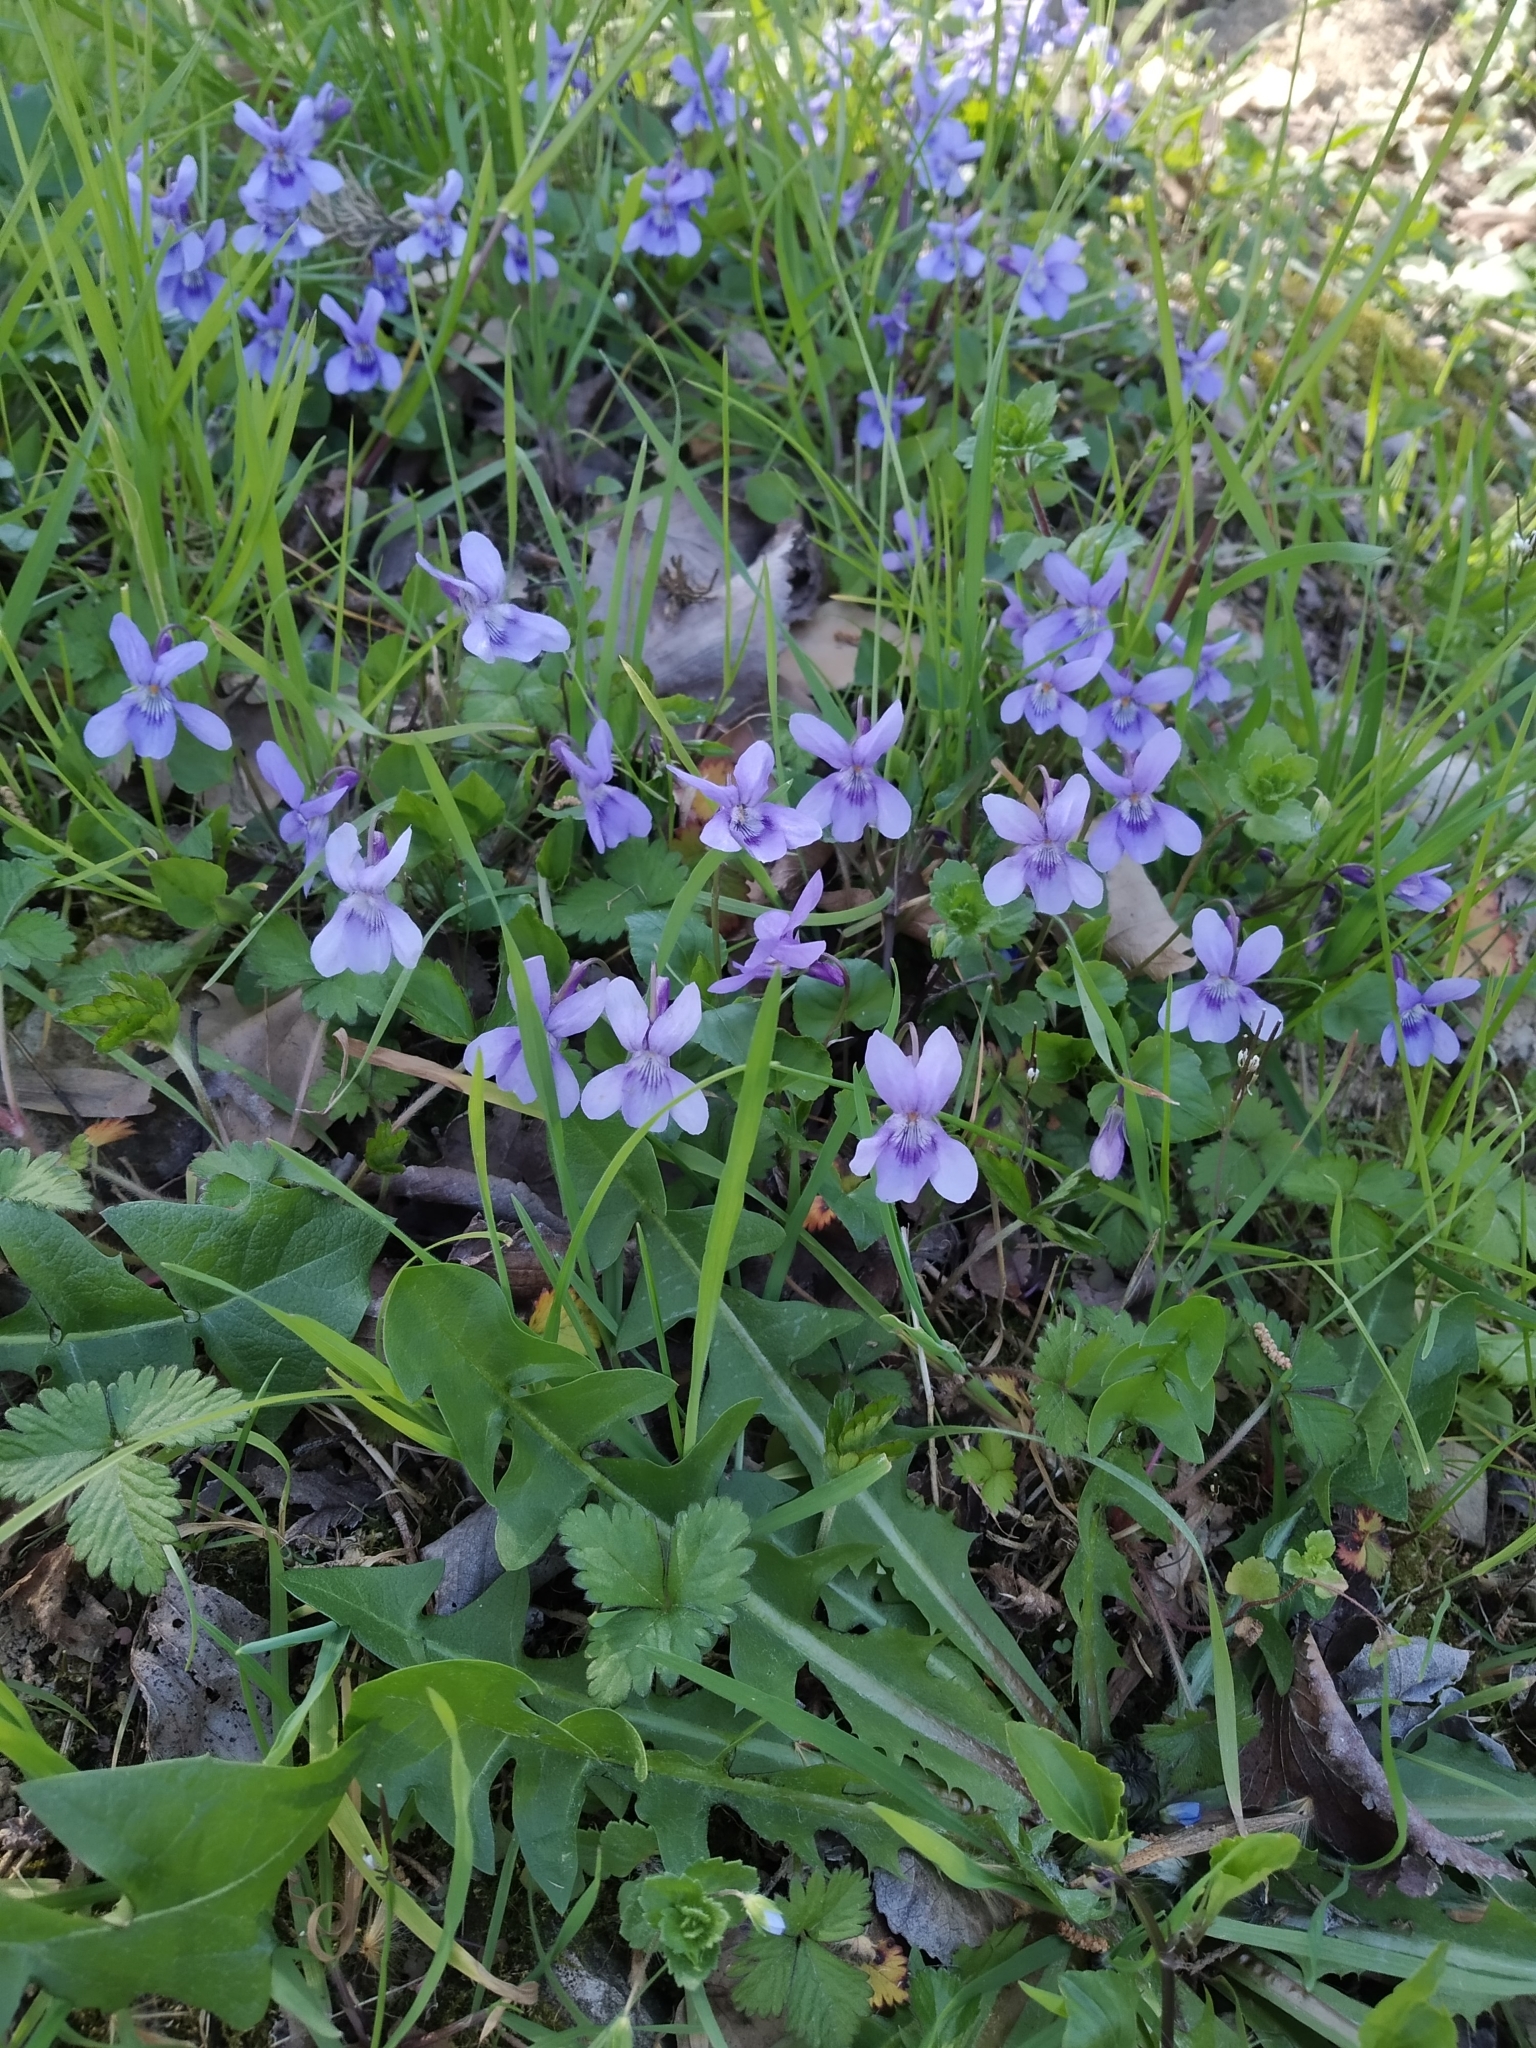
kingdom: Plantae
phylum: Tracheophyta
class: Magnoliopsida
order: Malpighiales
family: Violaceae
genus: Viola
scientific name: Viola reichenbachiana
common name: Early dog-violet
